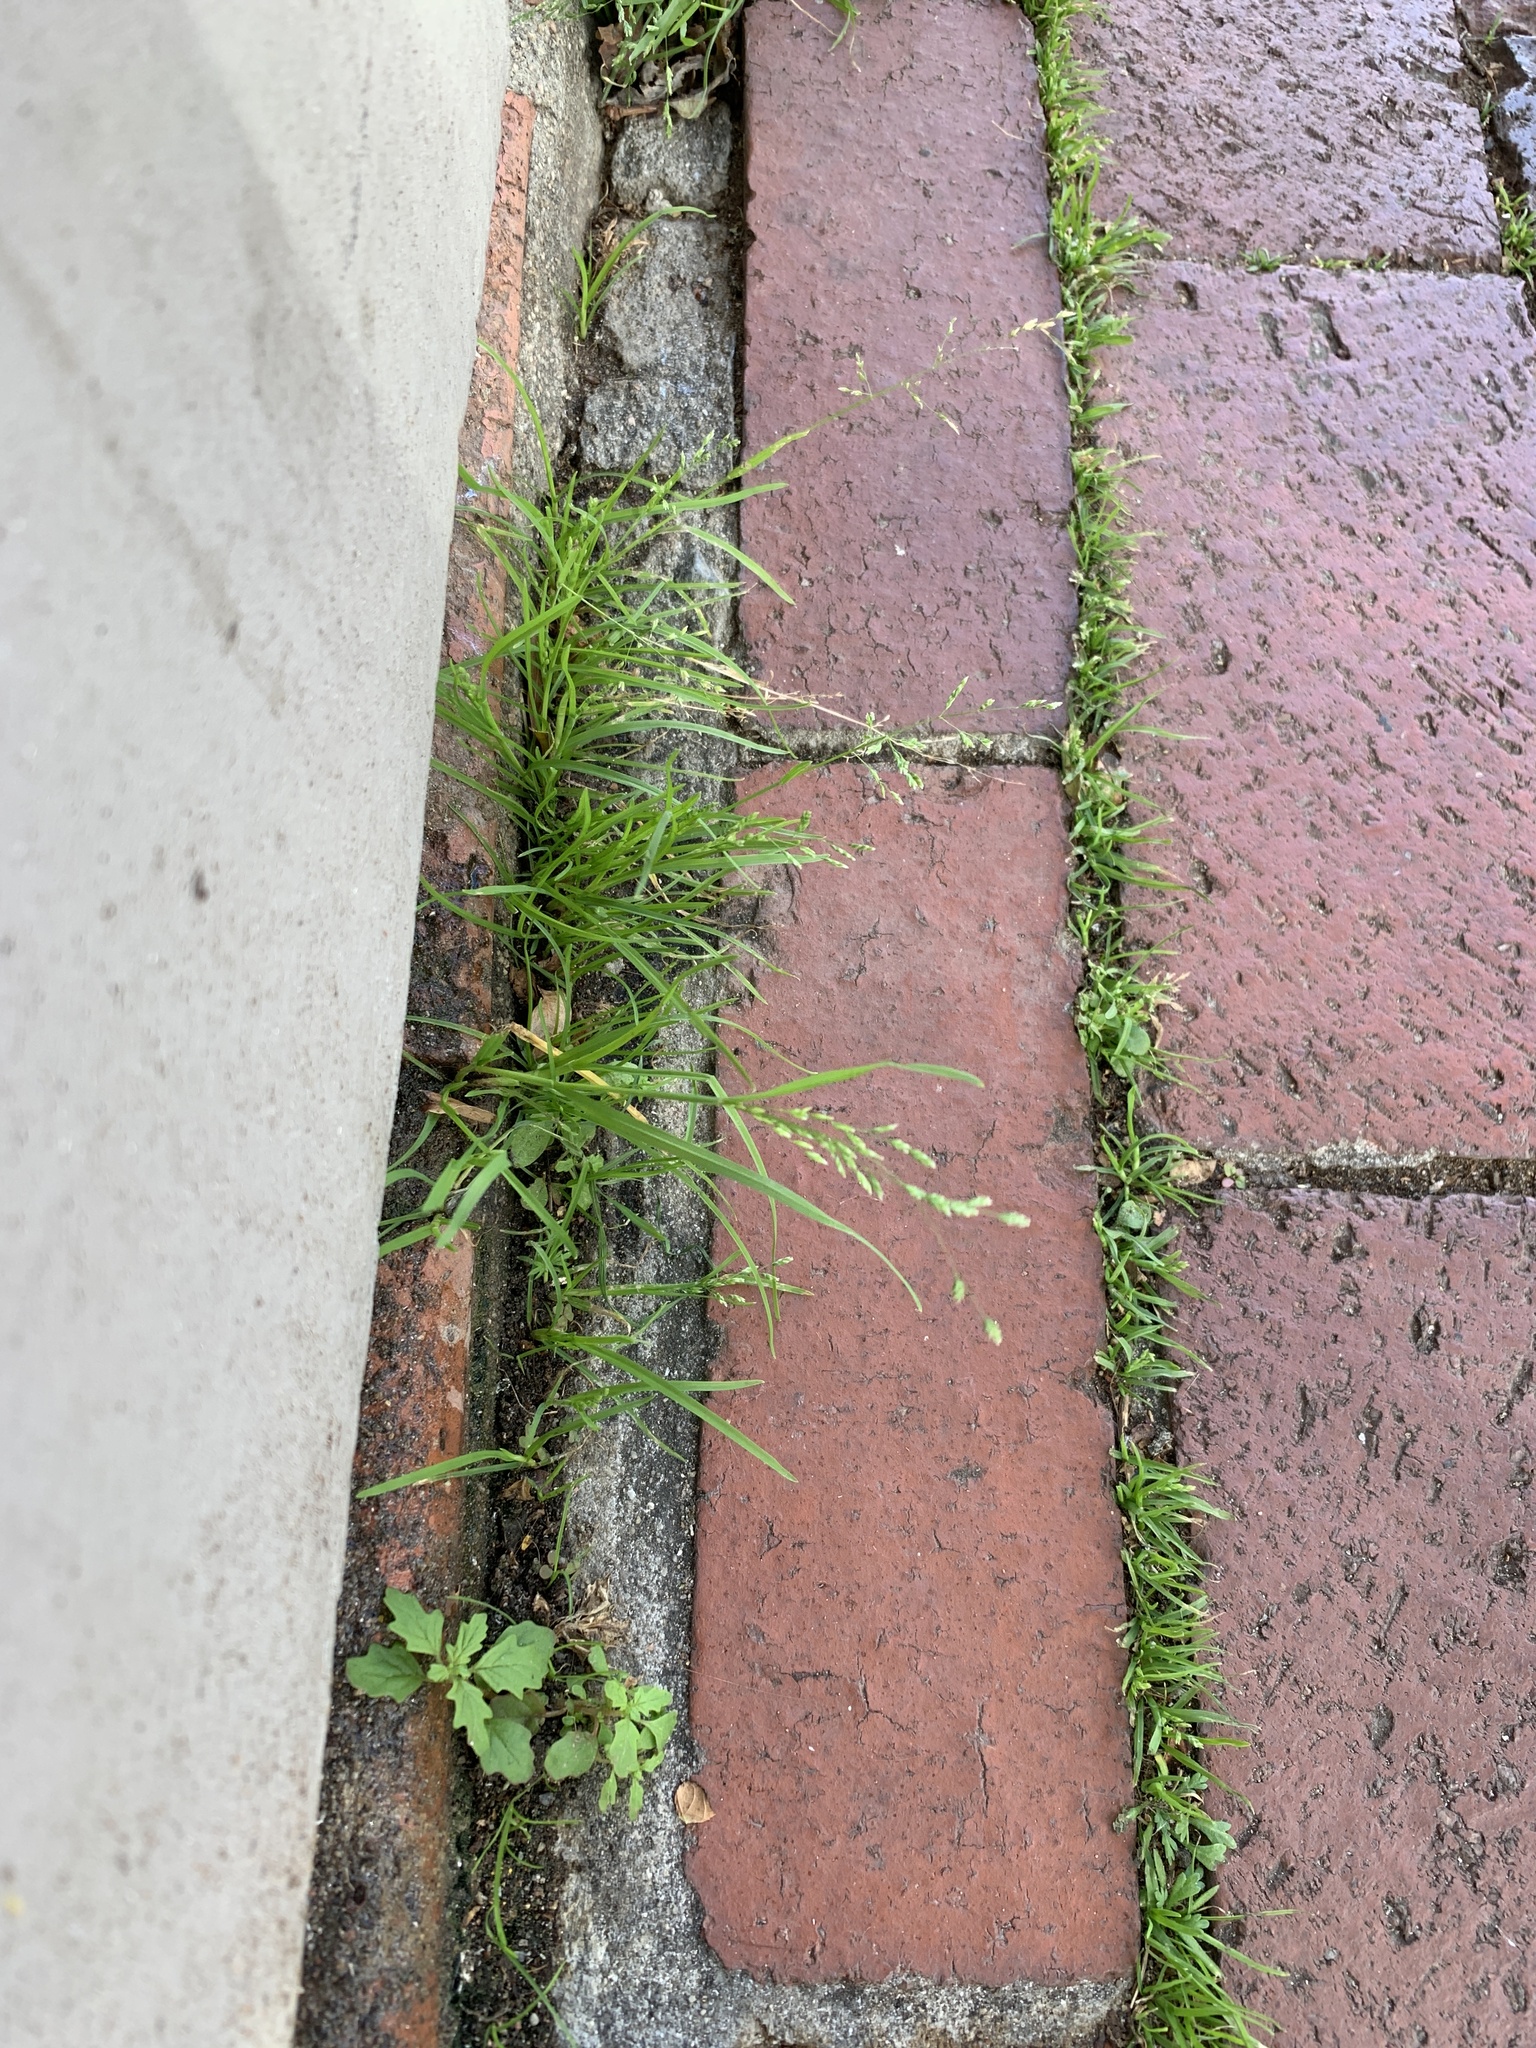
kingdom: Plantae
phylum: Tracheophyta
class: Liliopsida
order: Poales
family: Poaceae
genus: Poa
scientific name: Poa annua
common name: Annual bluegrass
